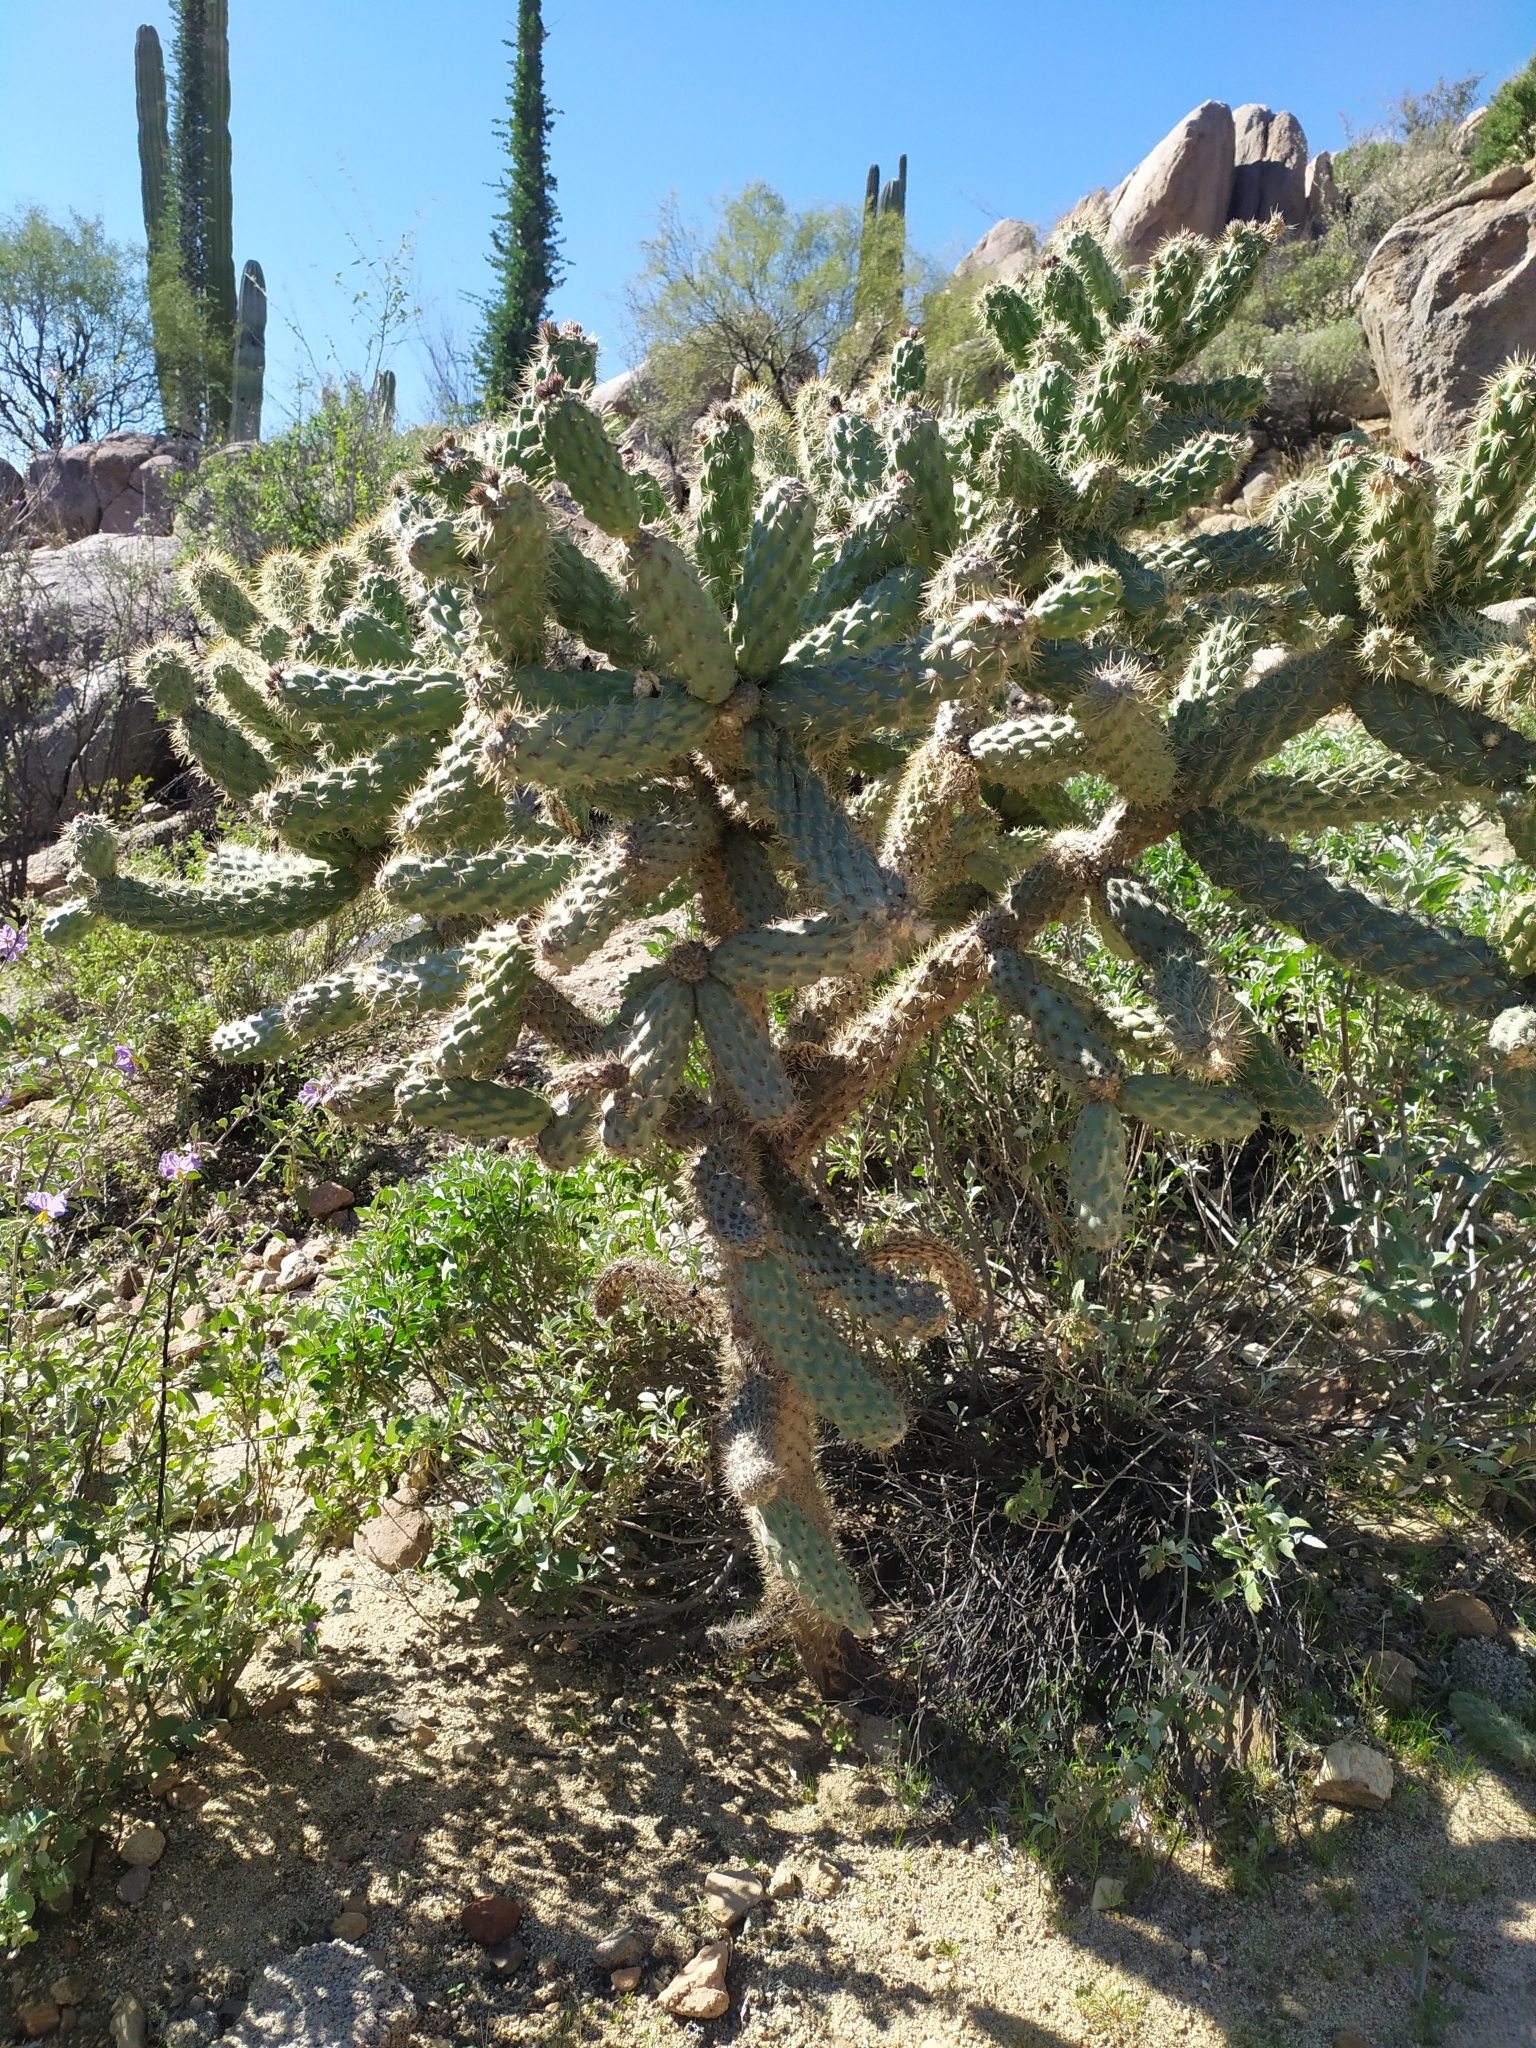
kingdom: Plantae
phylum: Tracheophyta
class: Magnoliopsida
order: Caryophyllales
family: Cactaceae
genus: Cylindropuntia
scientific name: Cylindropuntia alcahes
